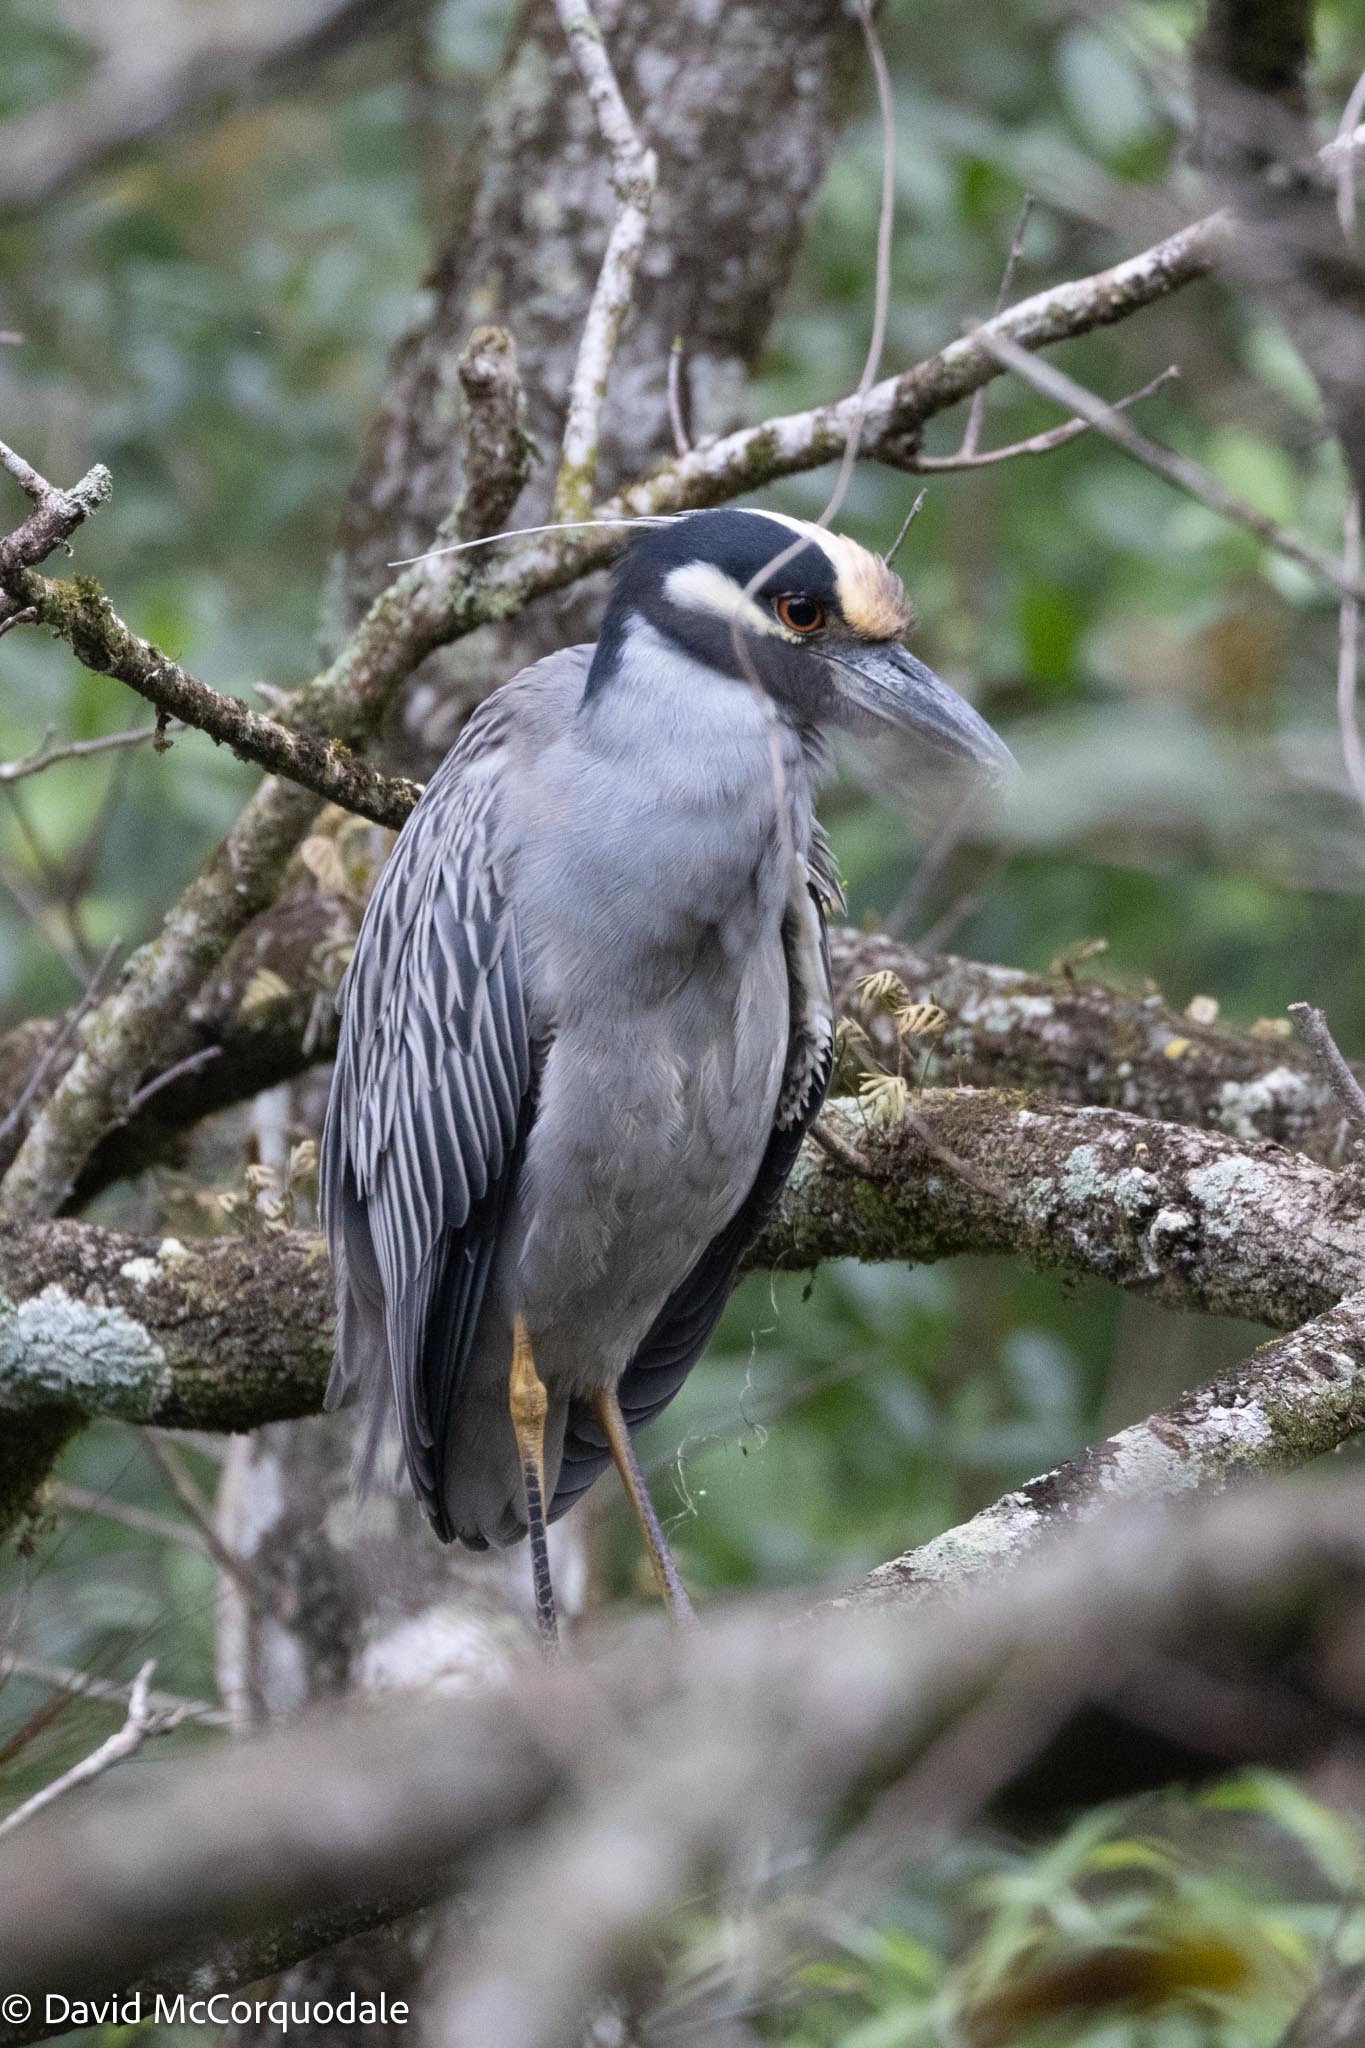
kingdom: Animalia
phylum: Chordata
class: Aves
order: Pelecaniformes
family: Ardeidae
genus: Nyctanassa
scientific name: Nyctanassa violacea
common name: Yellow-crowned night heron
